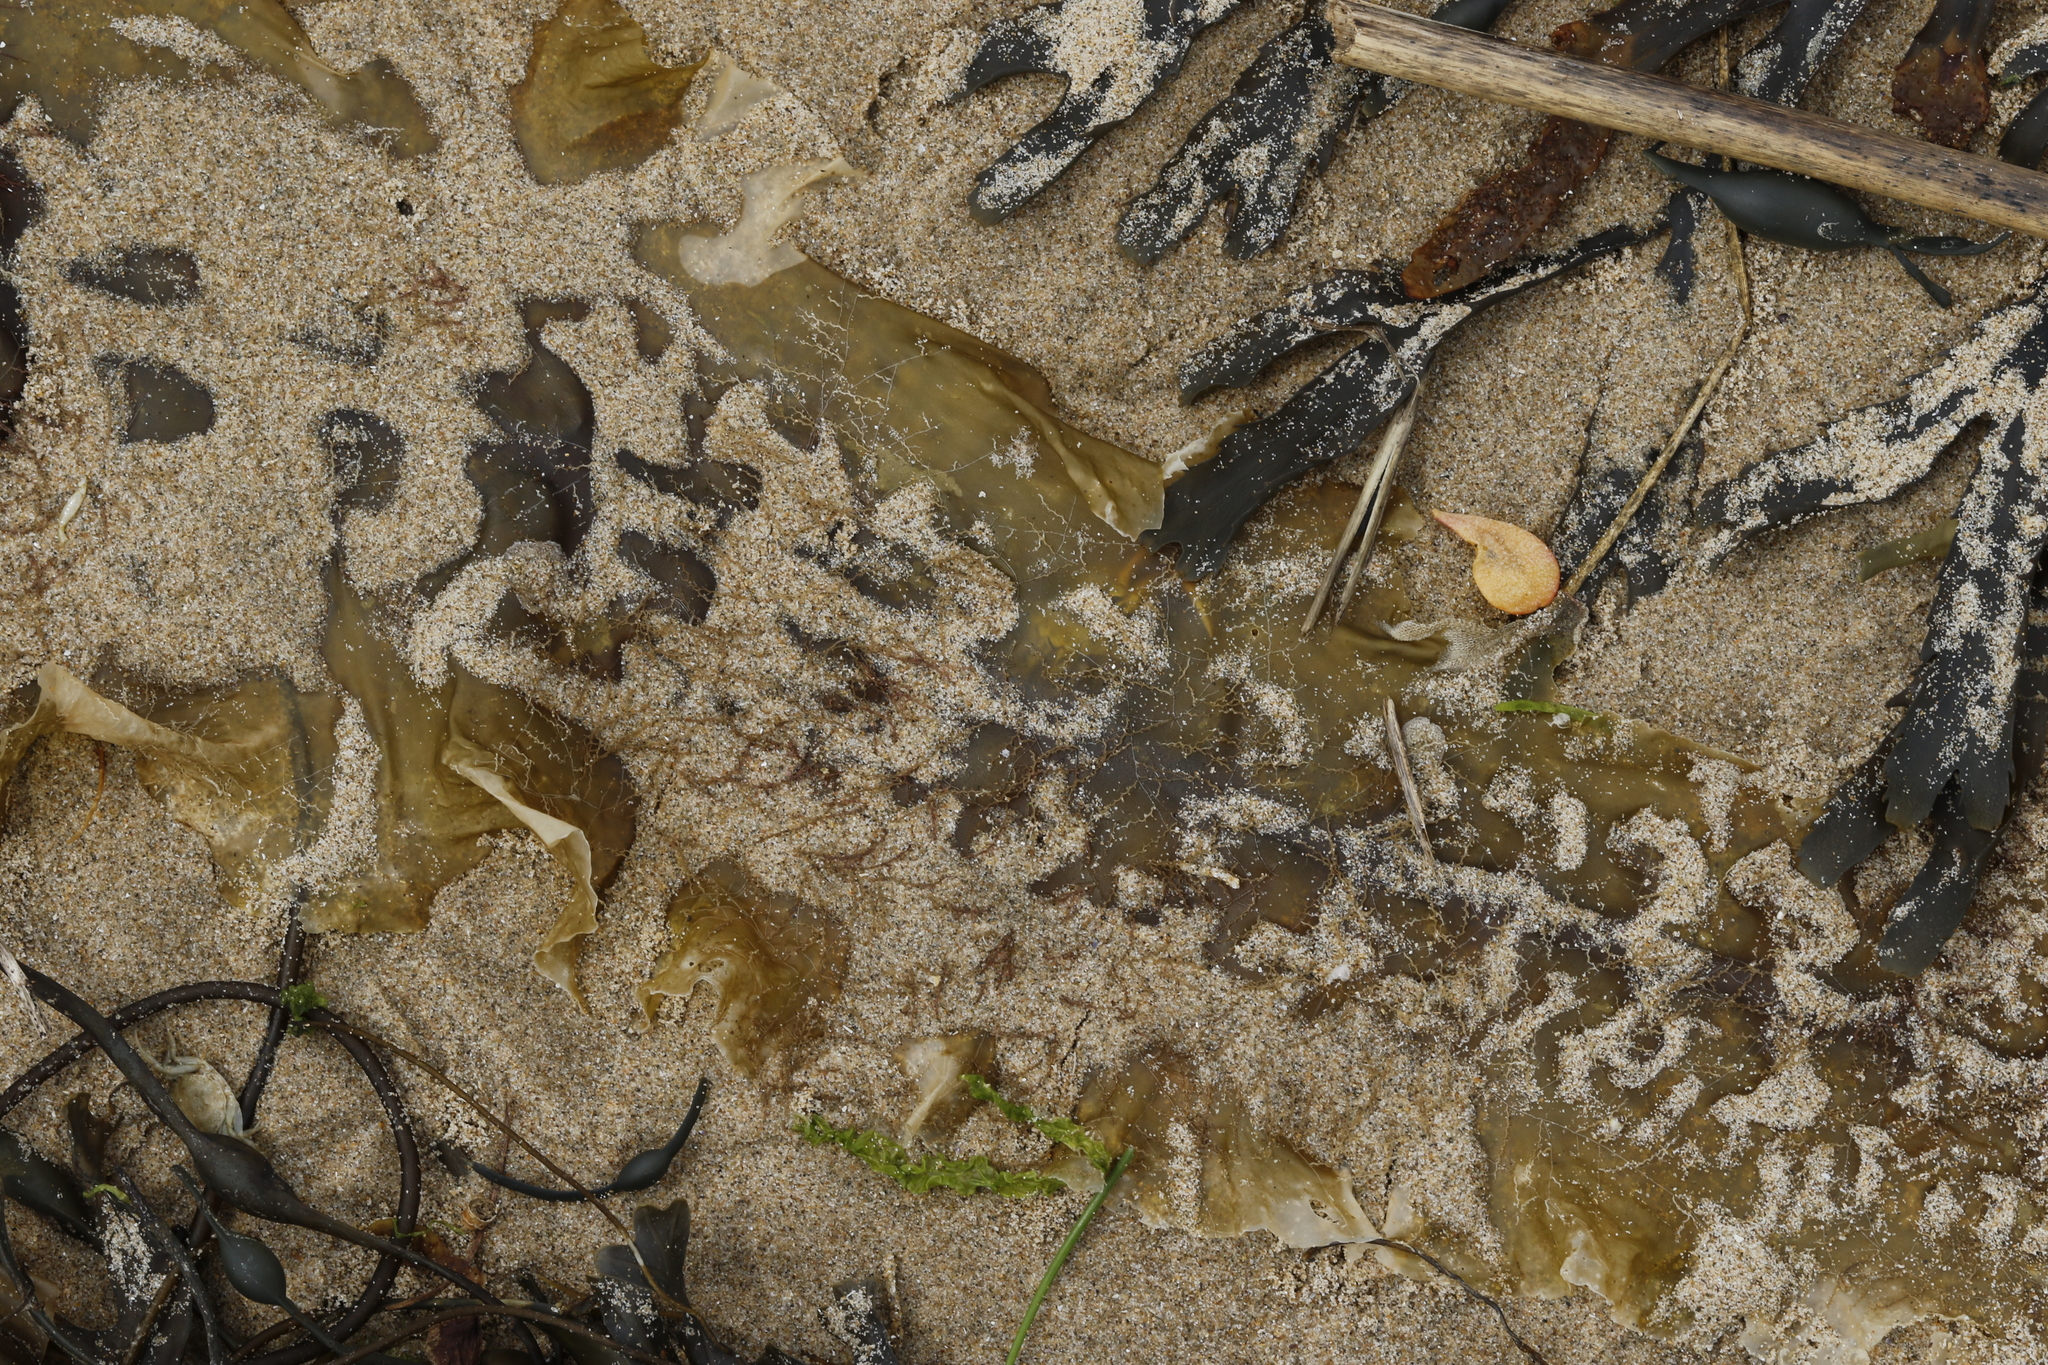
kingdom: Chromista
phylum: Ochrophyta
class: Phaeophyceae
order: Laminariales
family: Laminariaceae
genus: Saccharina
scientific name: Saccharina latissima
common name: Poor man's weather glass
